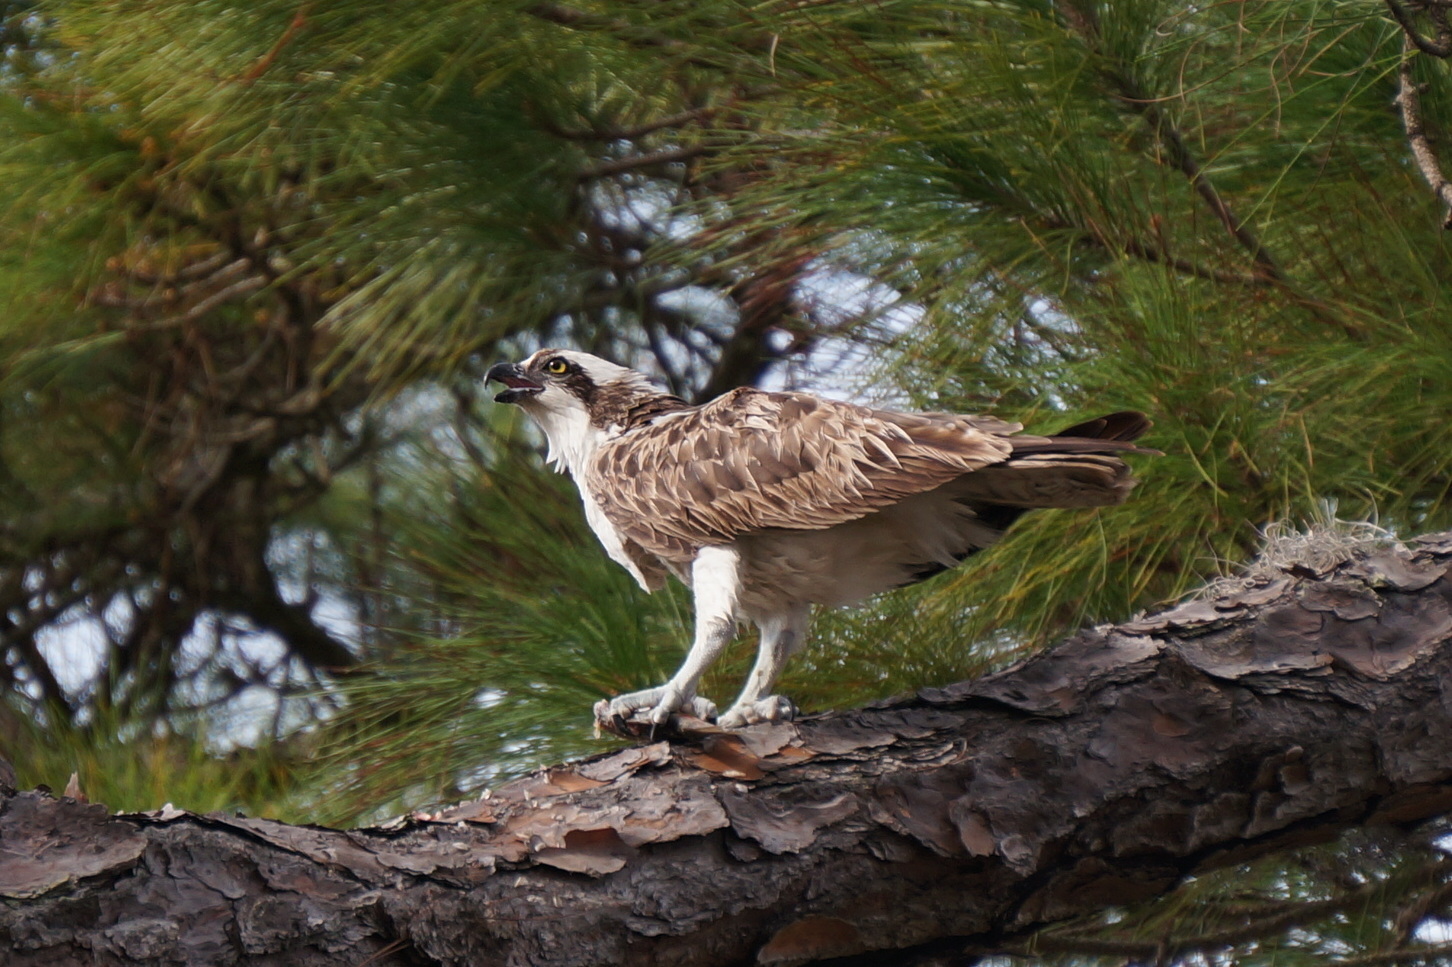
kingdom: Animalia
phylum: Chordata
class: Aves
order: Accipitriformes
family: Pandionidae
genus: Pandion
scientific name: Pandion haliaetus
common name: Osprey
